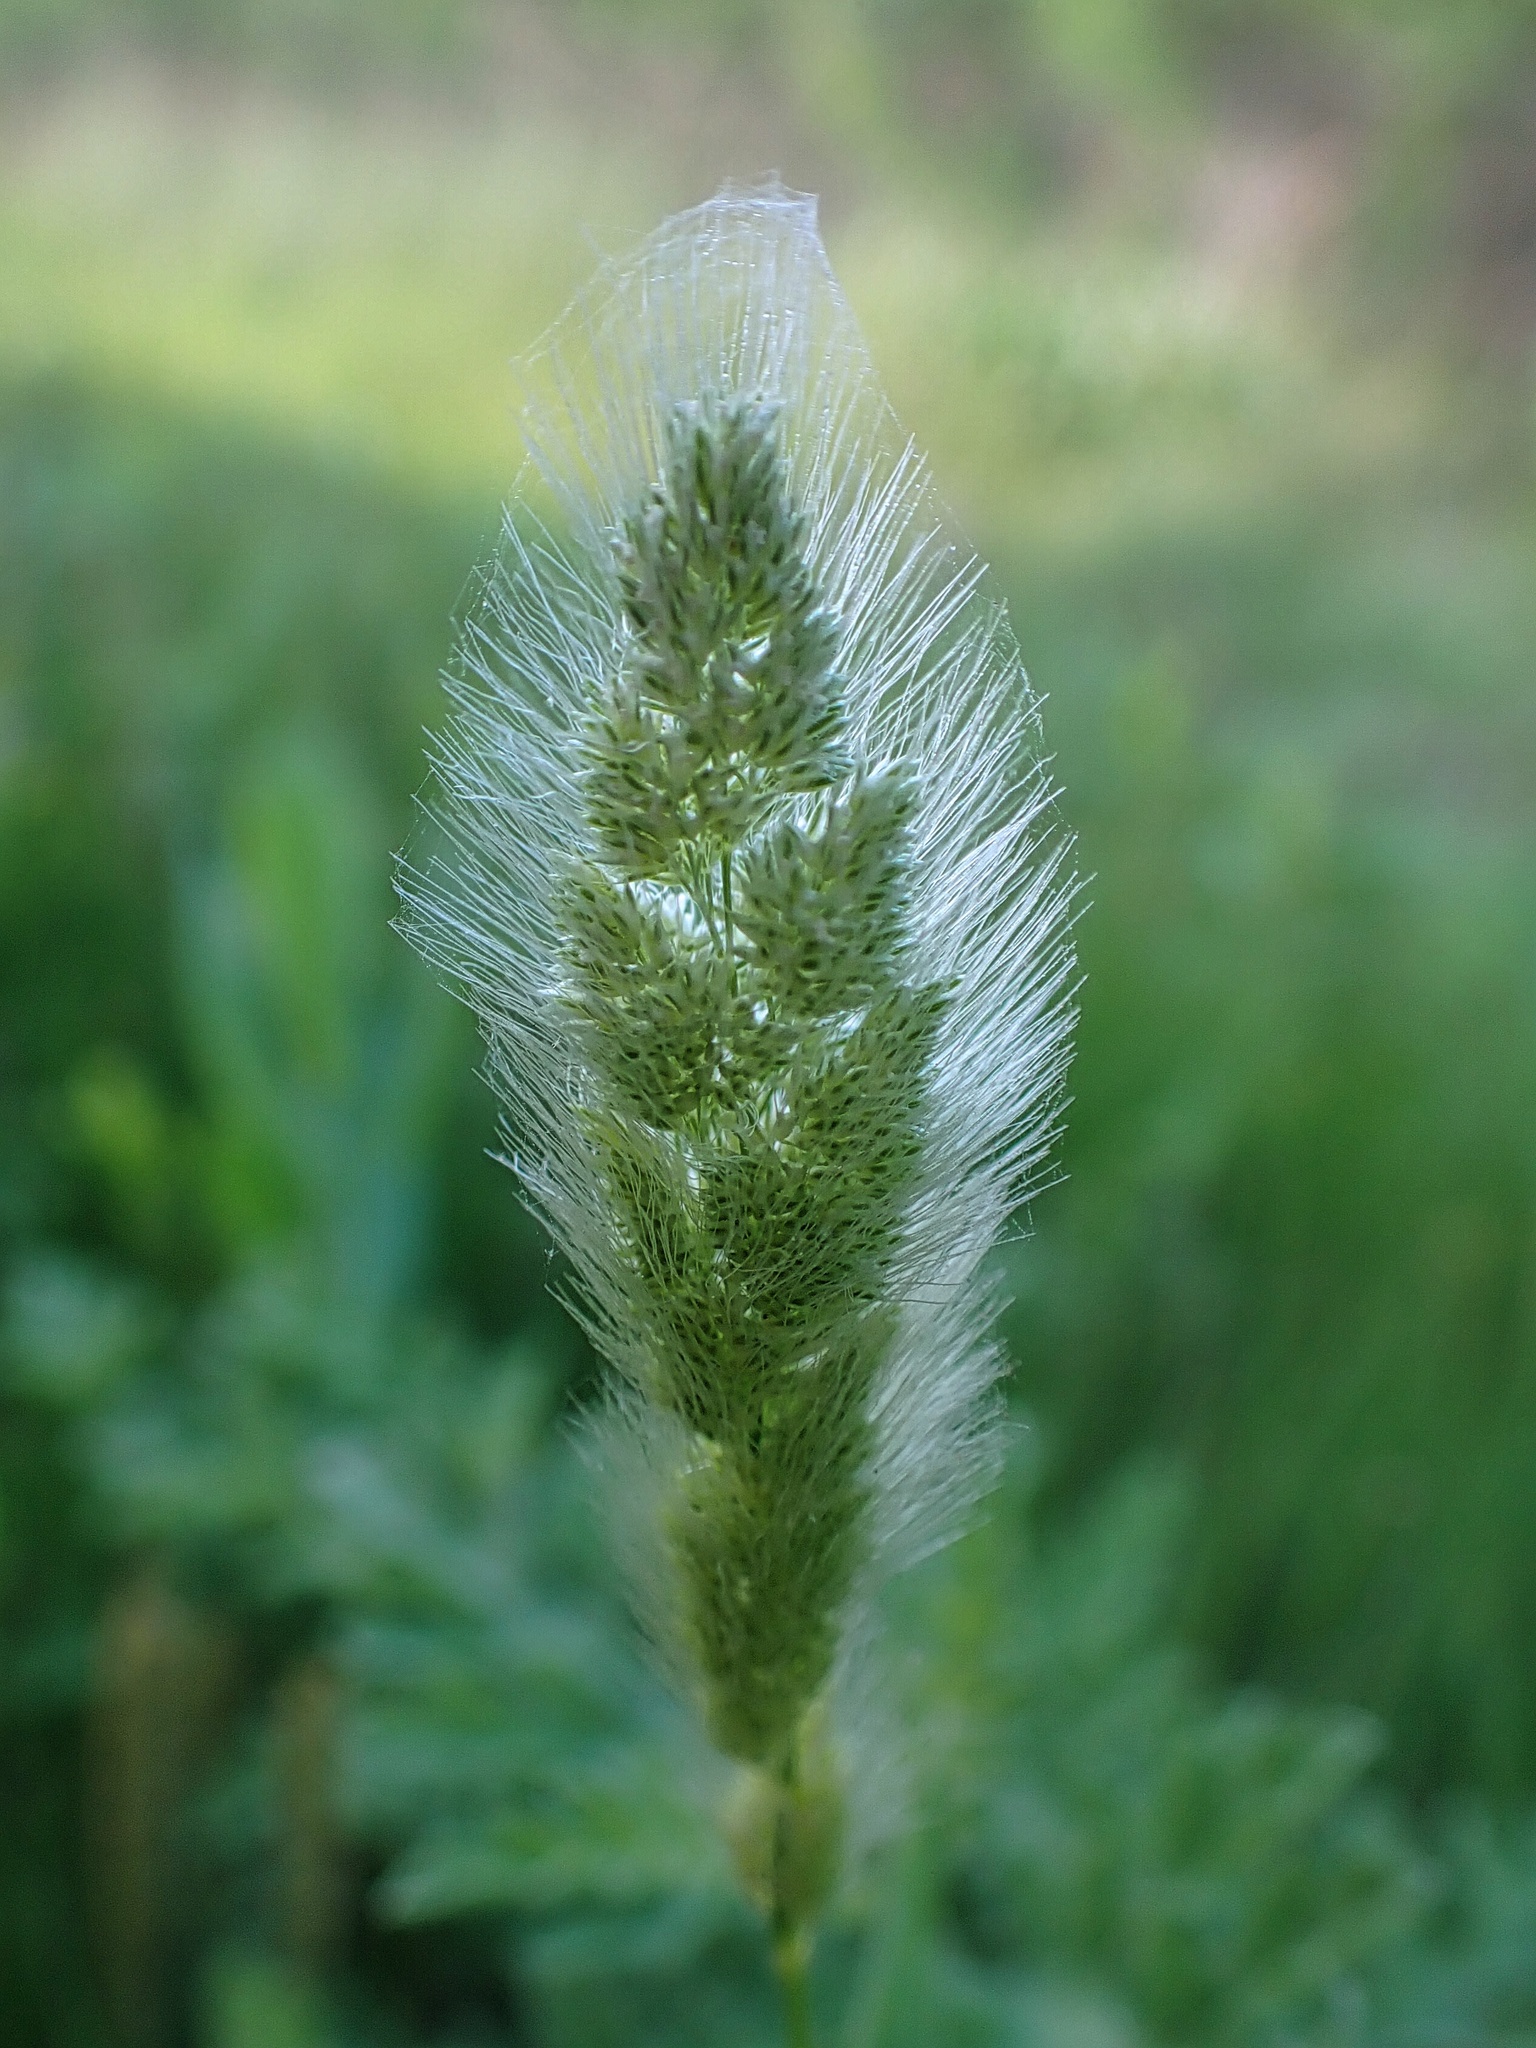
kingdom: Plantae
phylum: Tracheophyta
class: Liliopsida
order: Poales
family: Poaceae
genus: Polypogon
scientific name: Polypogon monspeliensis
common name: Annual rabbitsfoot grass
